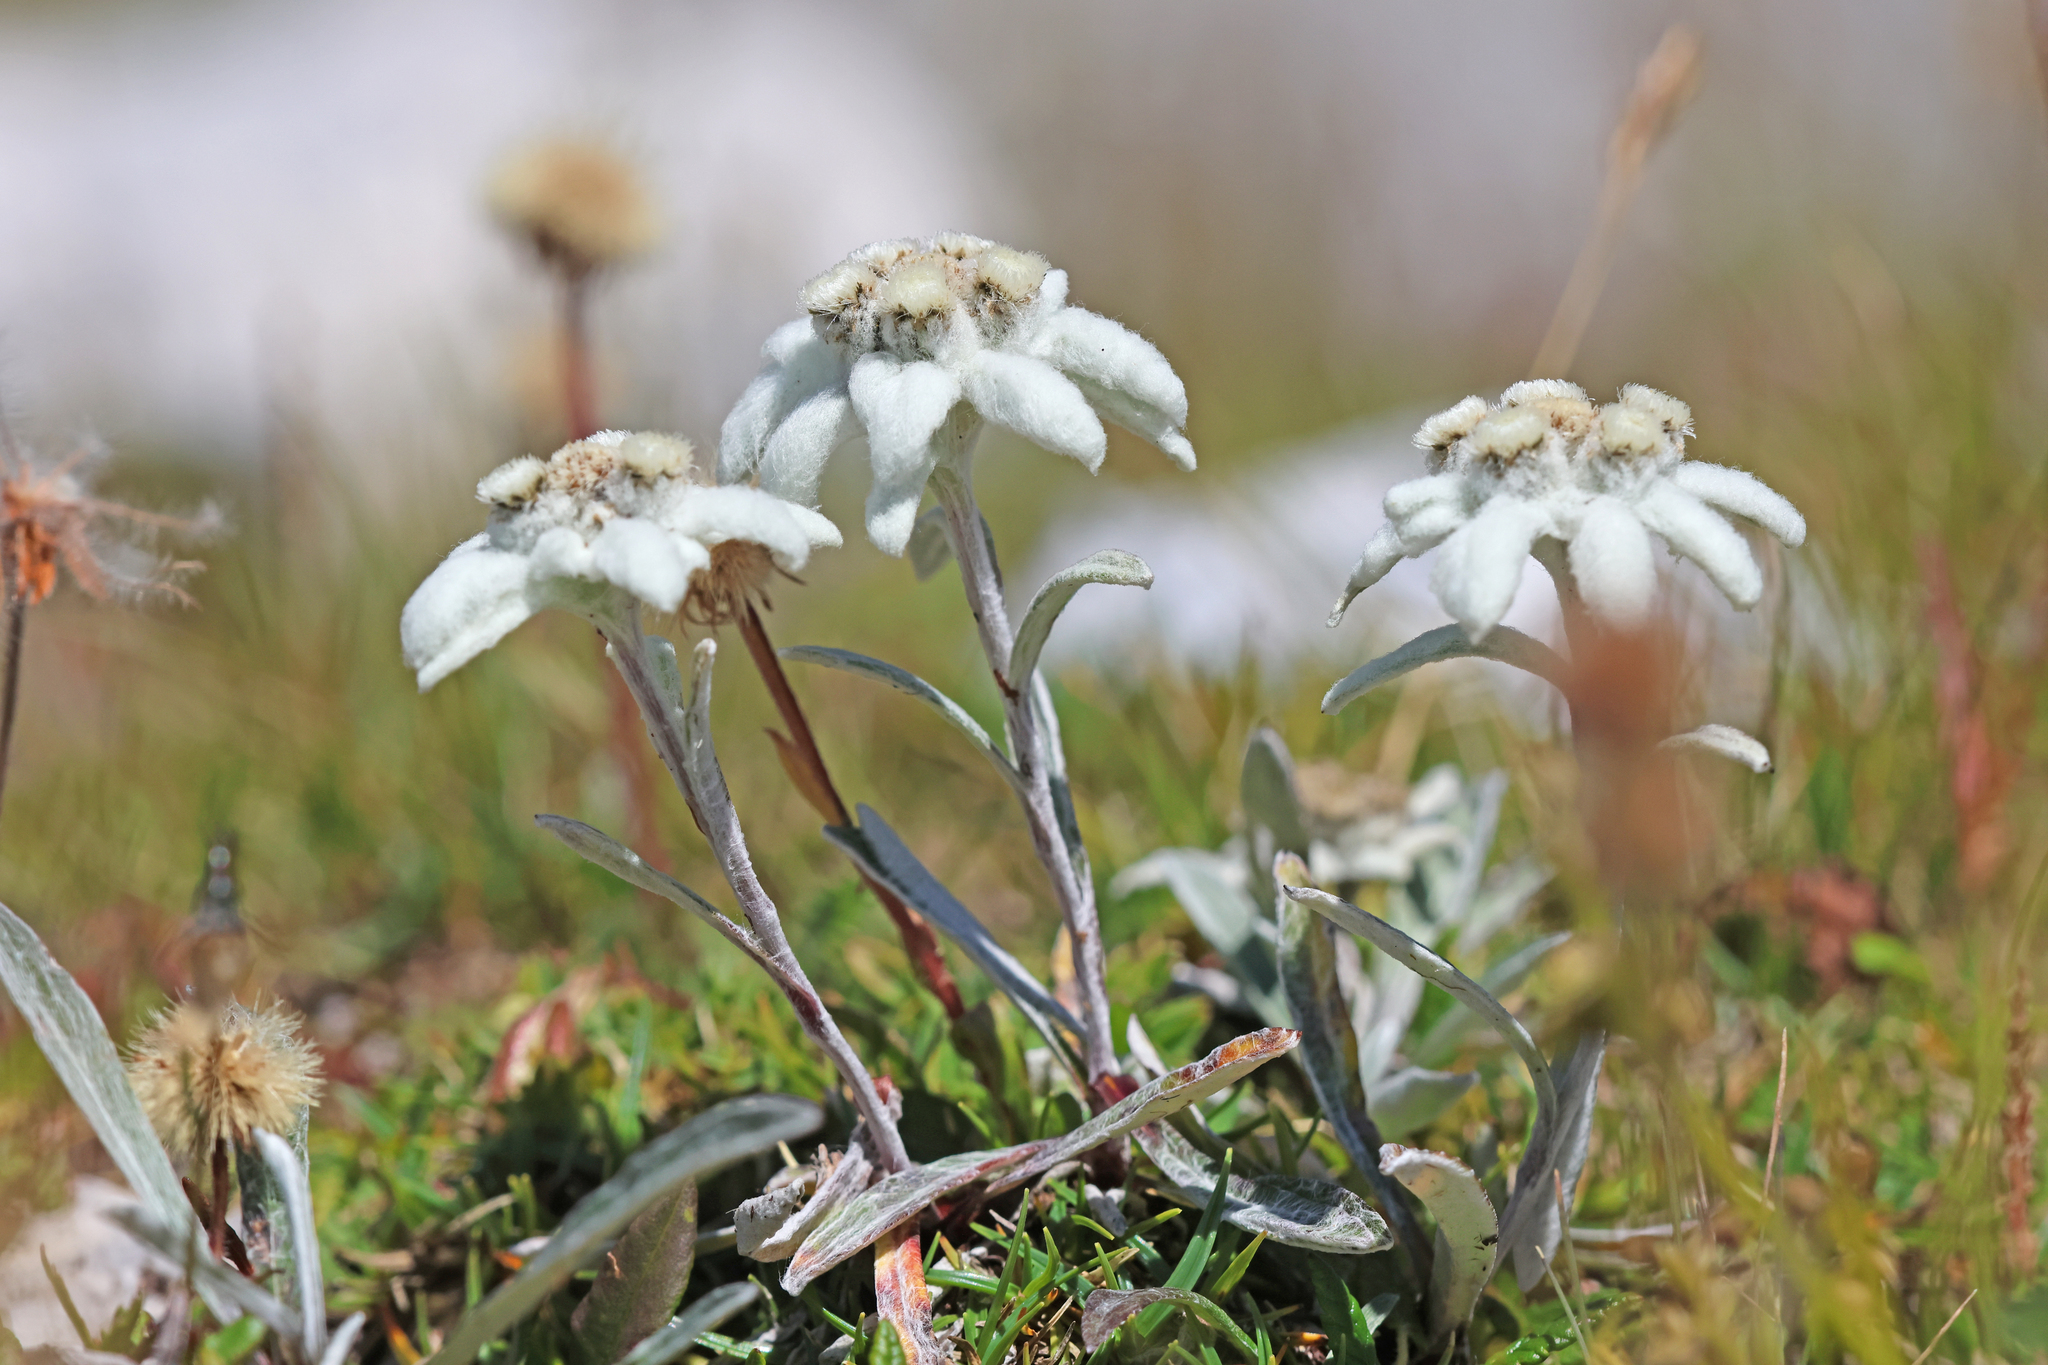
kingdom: Plantae
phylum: Tracheophyta
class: Magnoliopsida
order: Asterales
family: Asteraceae
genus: Leontopodium
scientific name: Leontopodium nivale
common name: Edelweiss
